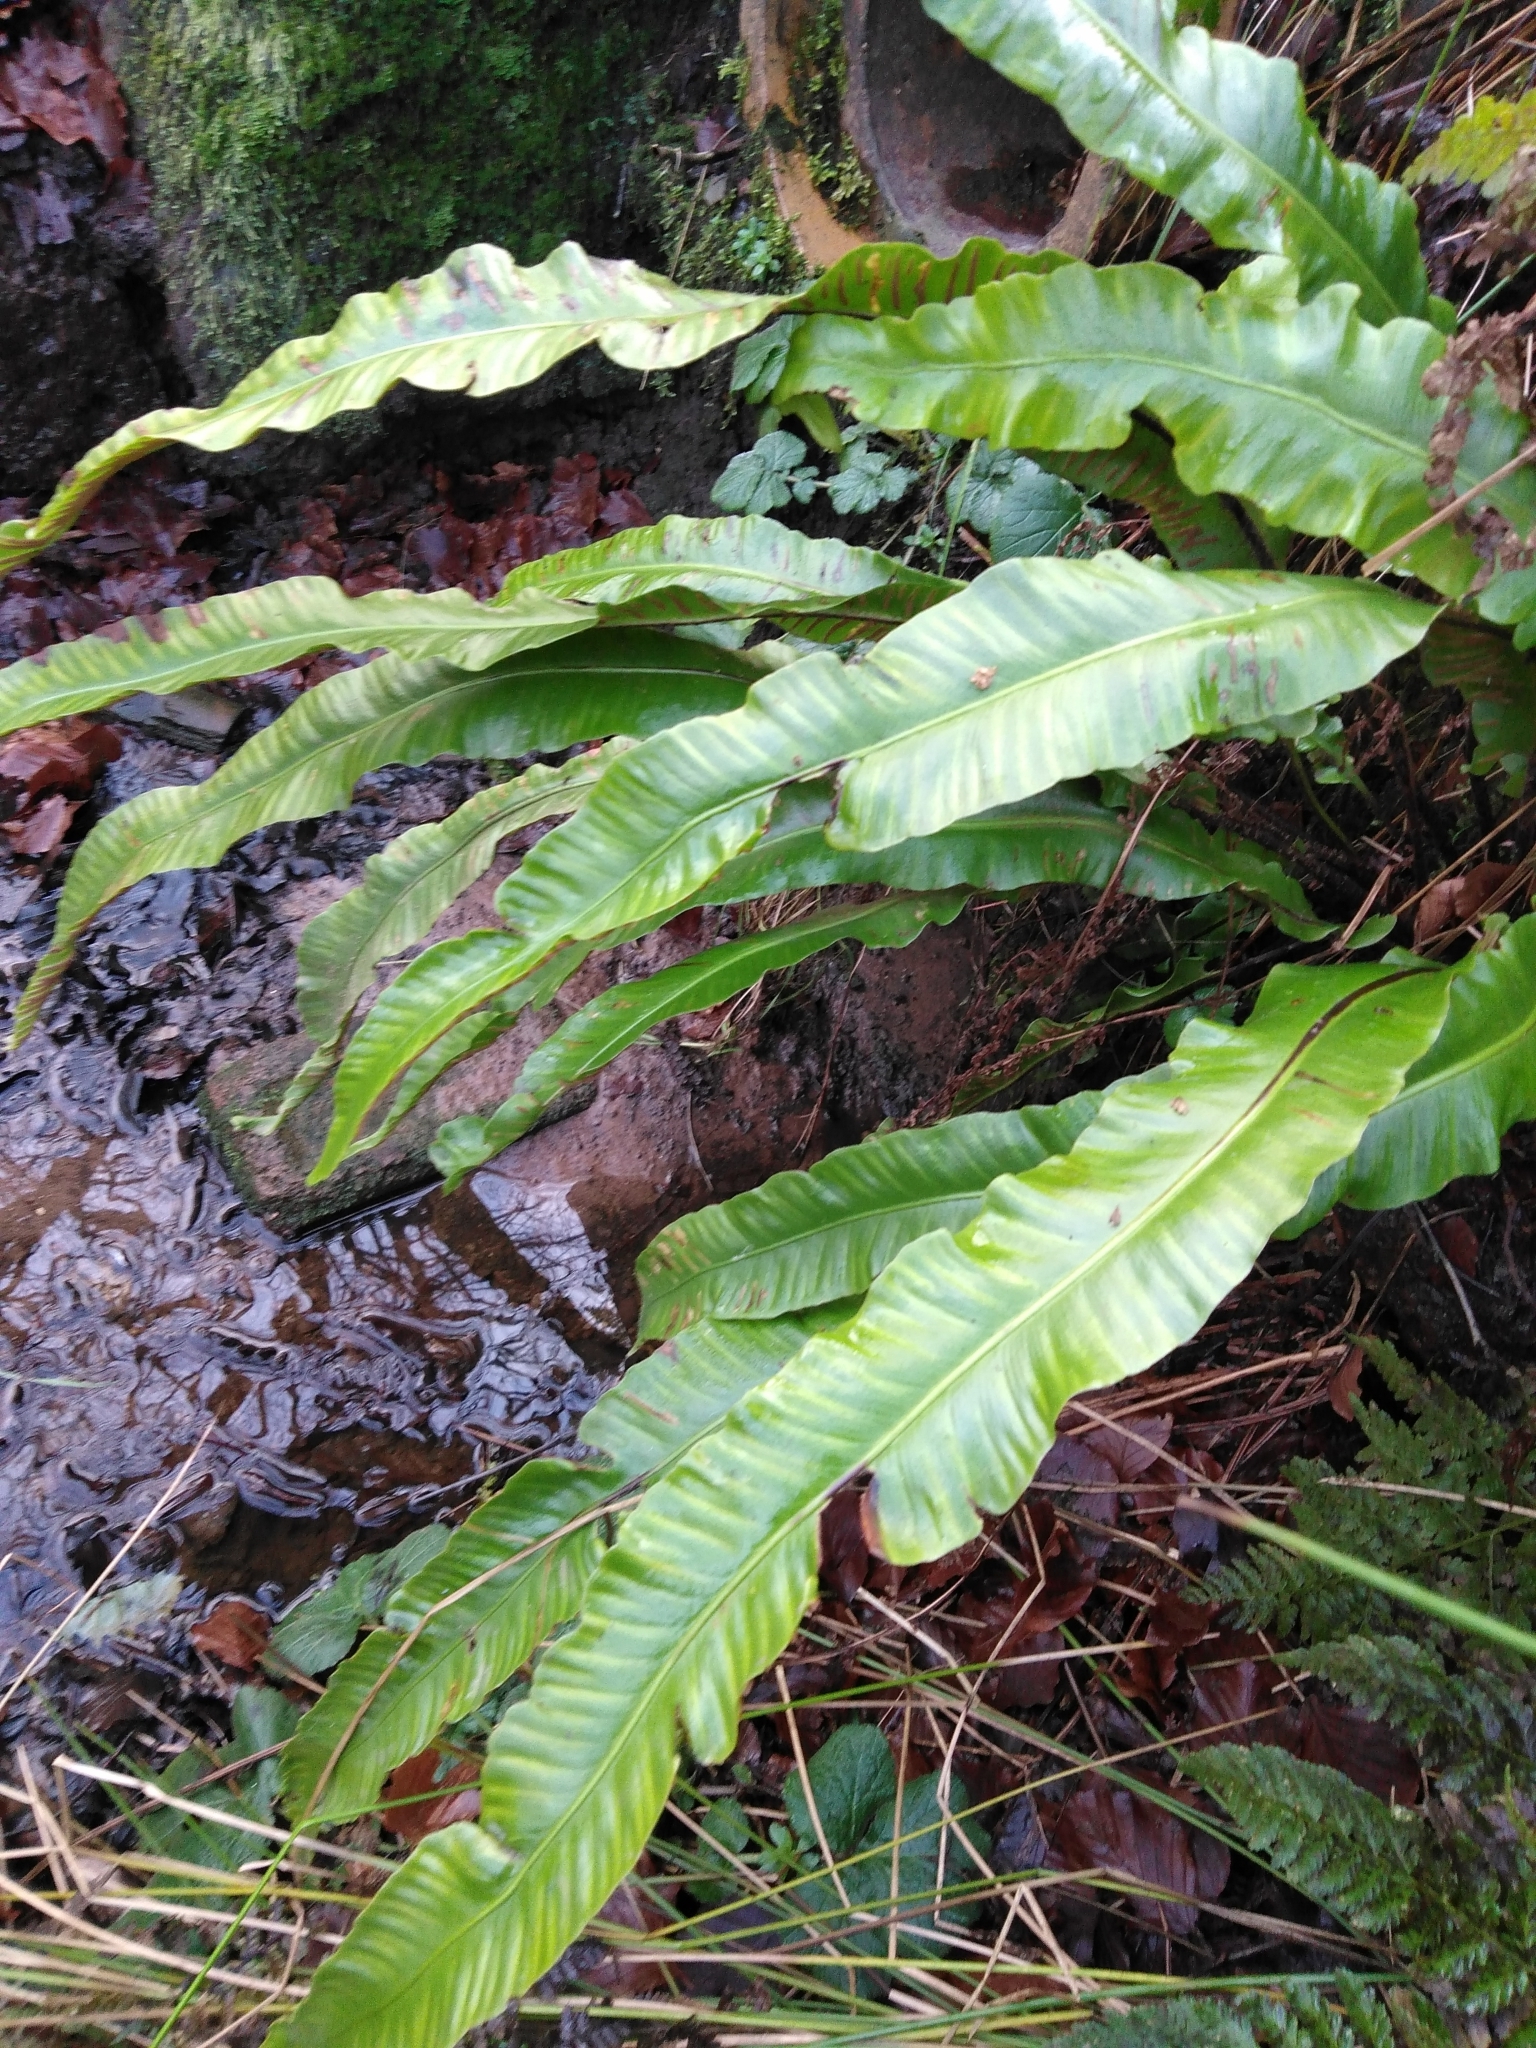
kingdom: Plantae
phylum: Tracheophyta
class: Polypodiopsida
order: Polypodiales
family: Aspleniaceae
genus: Asplenium
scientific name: Asplenium scolopendrium
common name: Hart's-tongue fern
